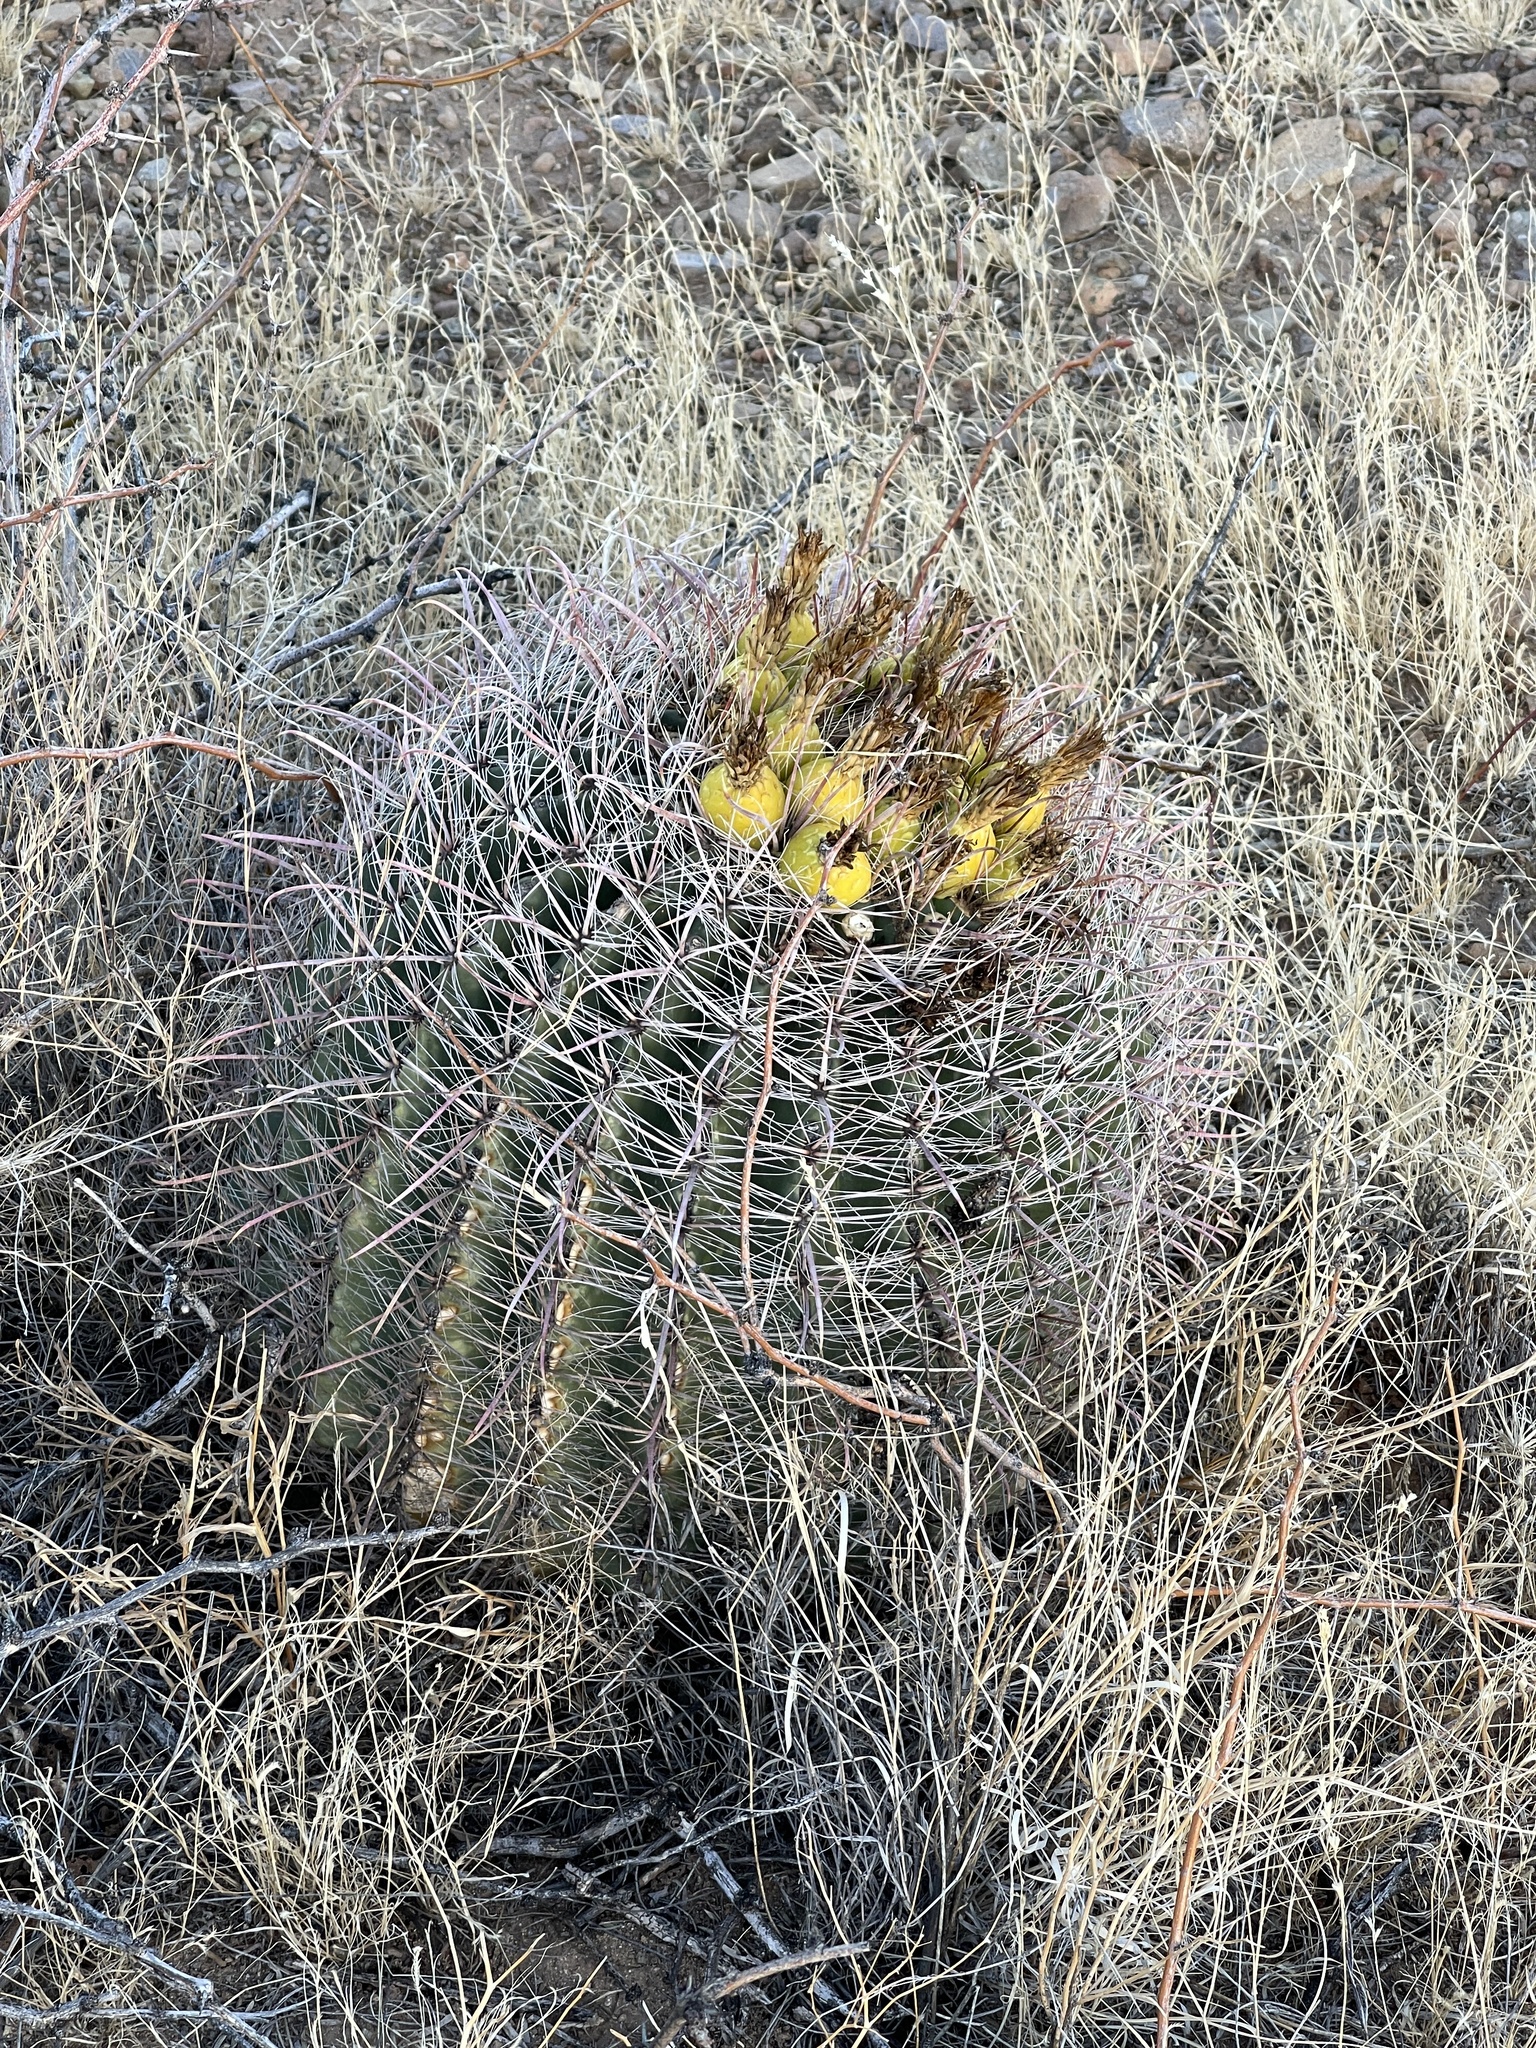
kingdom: Plantae
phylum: Tracheophyta
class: Magnoliopsida
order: Caryophyllales
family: Cactaceae
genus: Ferocactus
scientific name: Ferocactus wislizeni
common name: Candy barrel cactus
